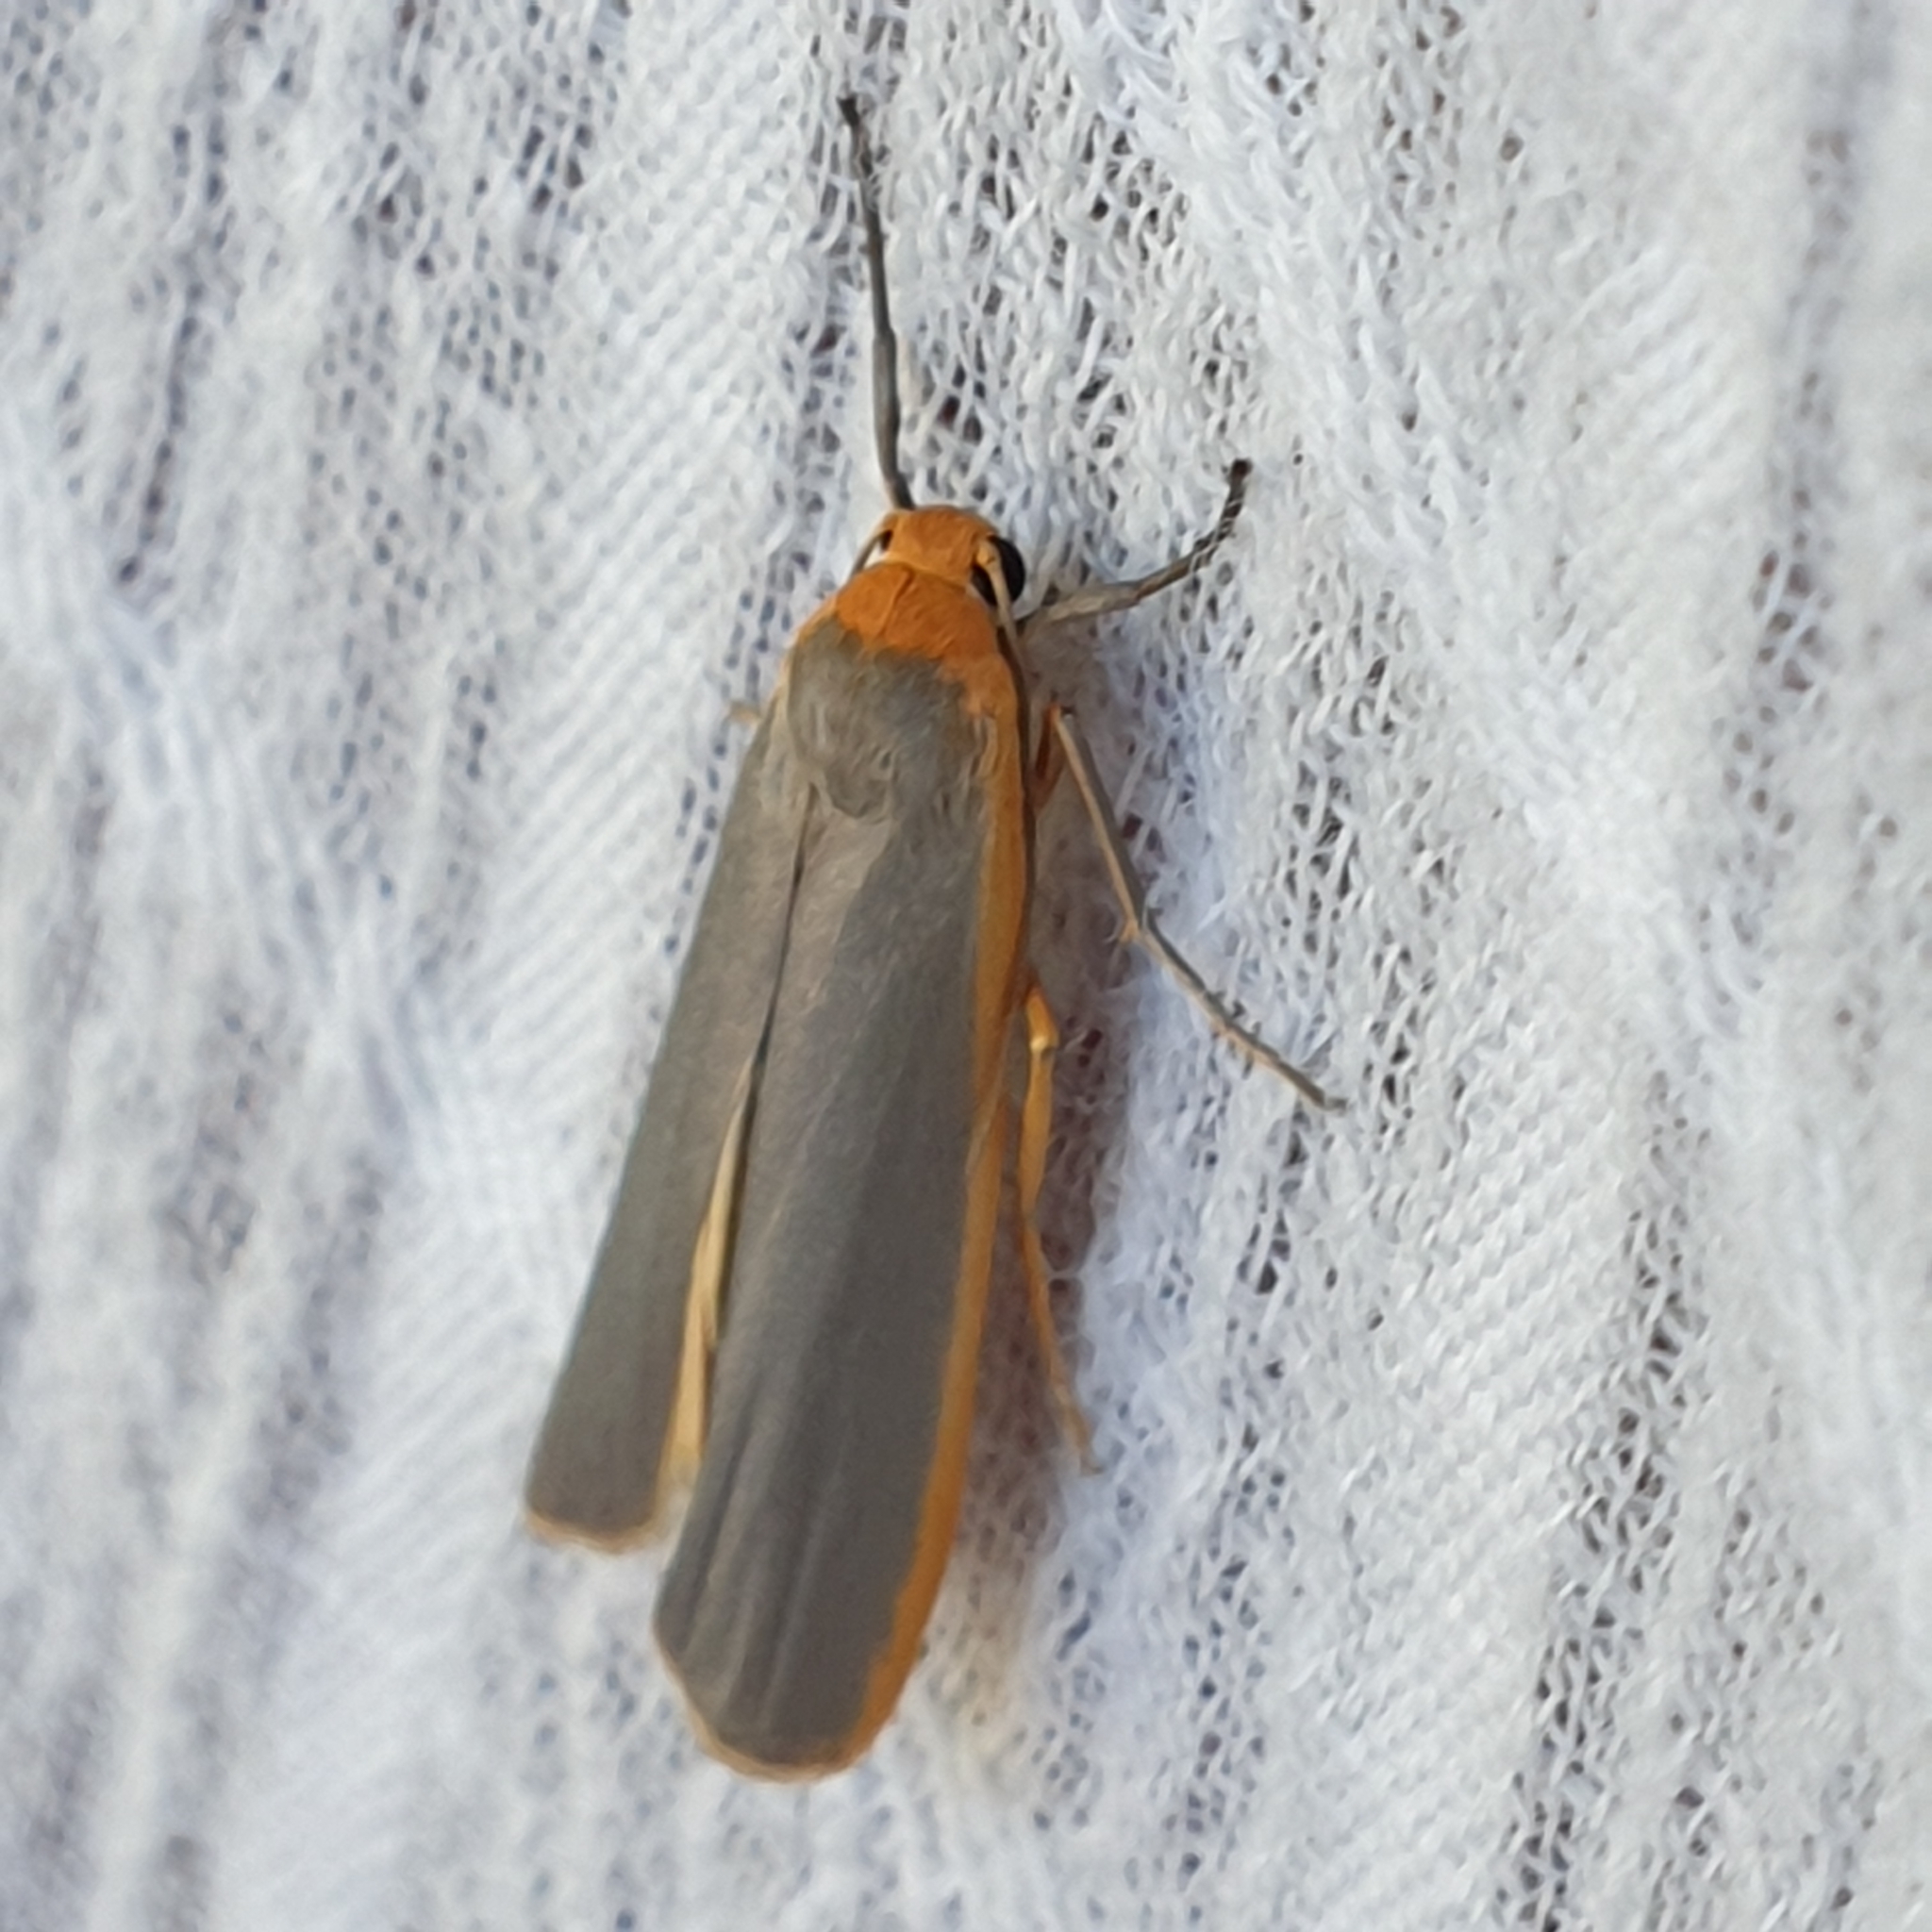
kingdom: Animalia
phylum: Arthropoda
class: Insecta
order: Lepidoptera
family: Erebidae
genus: Manulea
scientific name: Manulea complana
